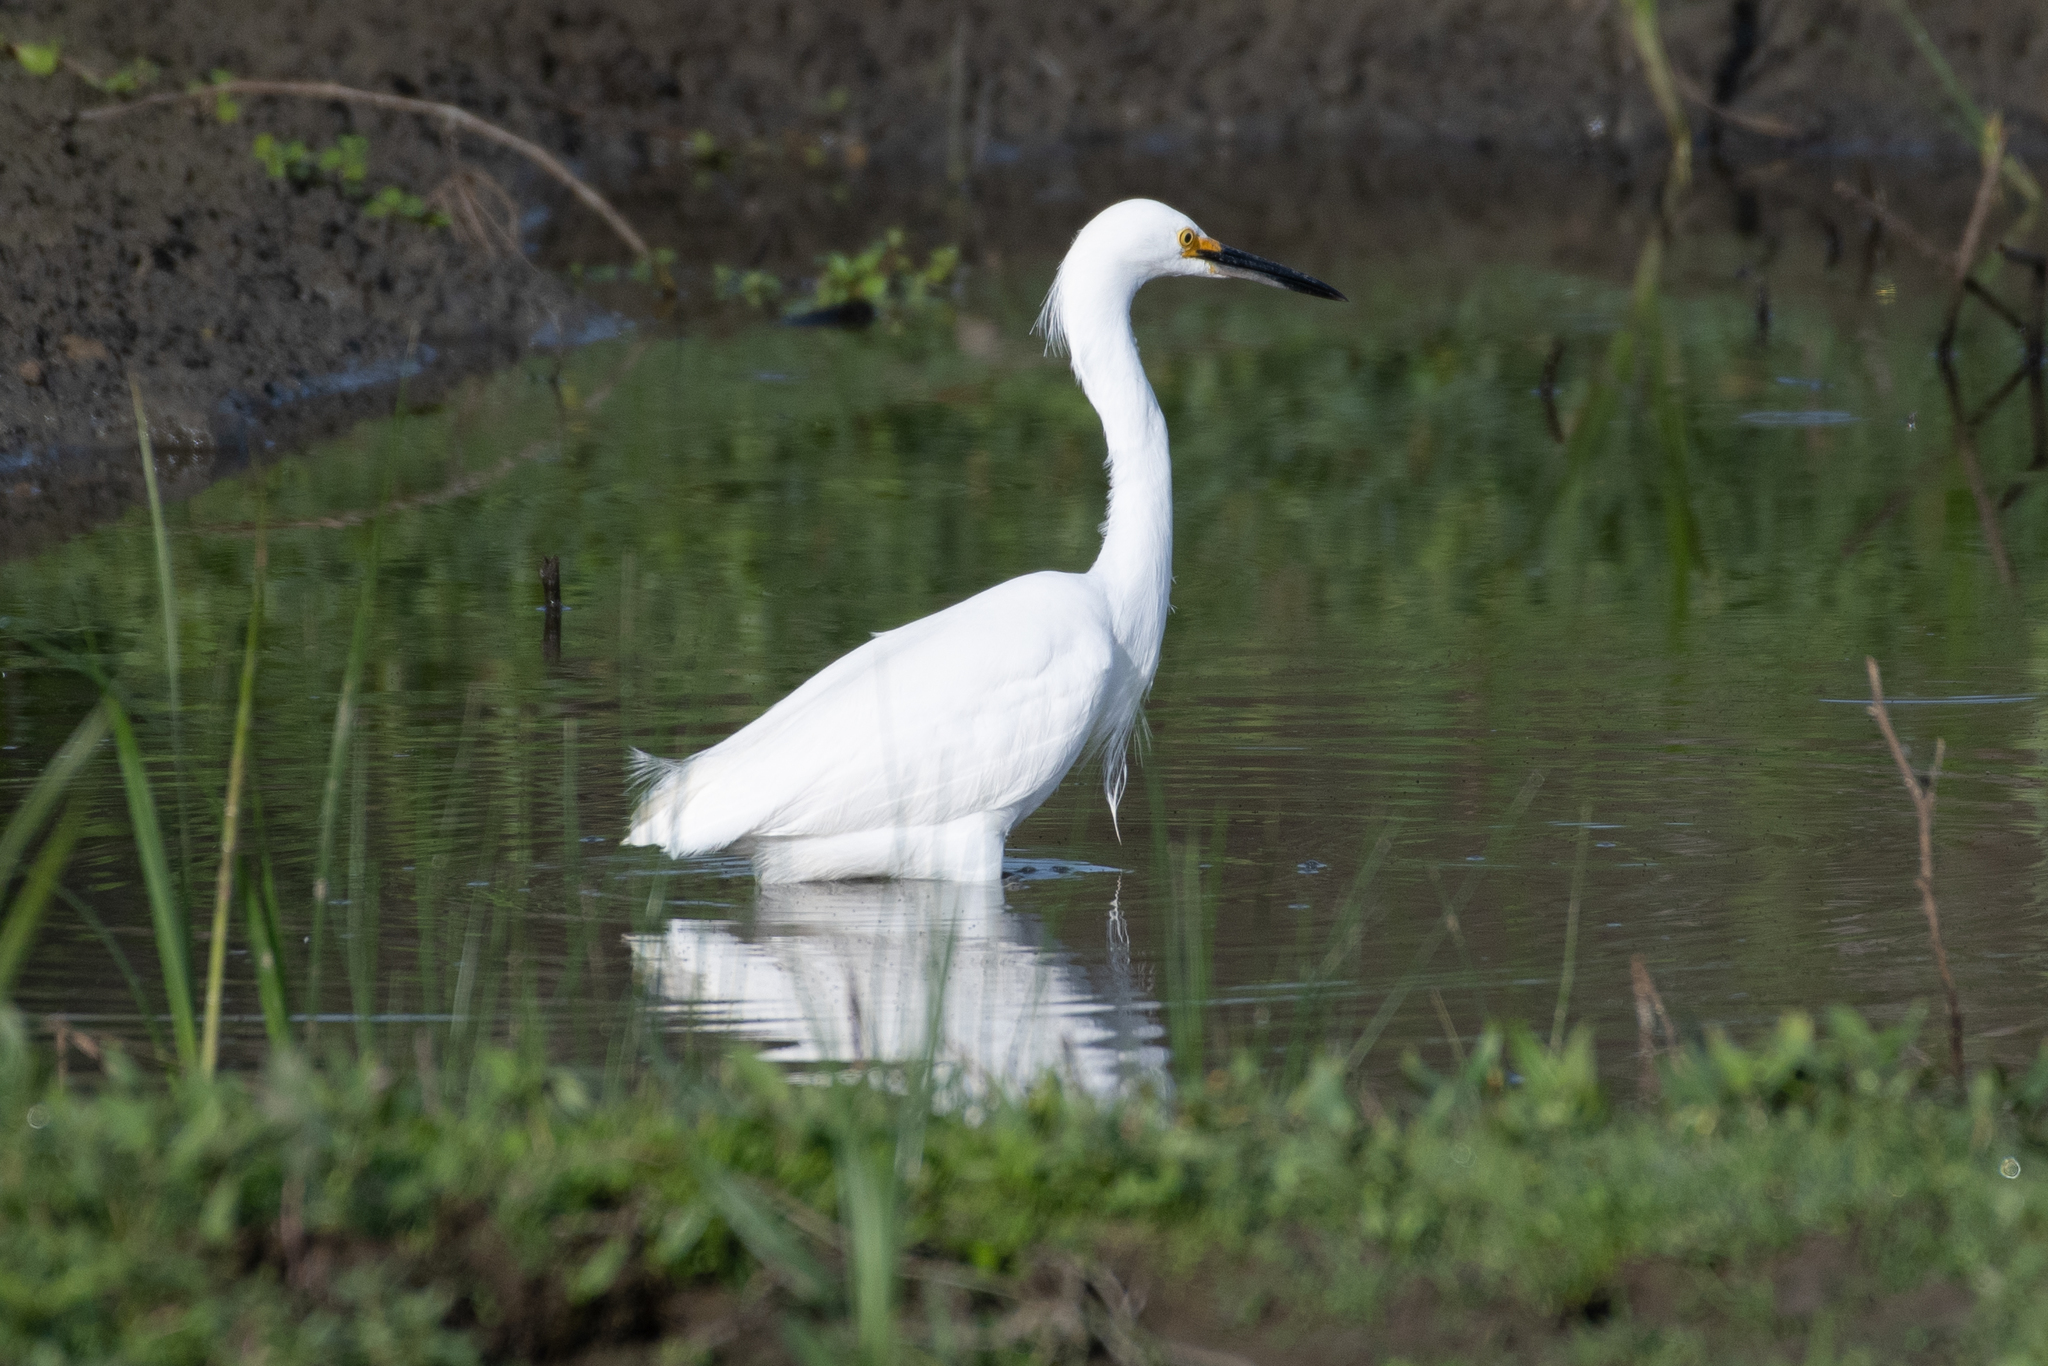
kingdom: Animalia
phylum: Chordata
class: Aves
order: Pelecaniformes
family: Ardeidae
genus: Egretta
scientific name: Egretta thula
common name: Snowy egret
